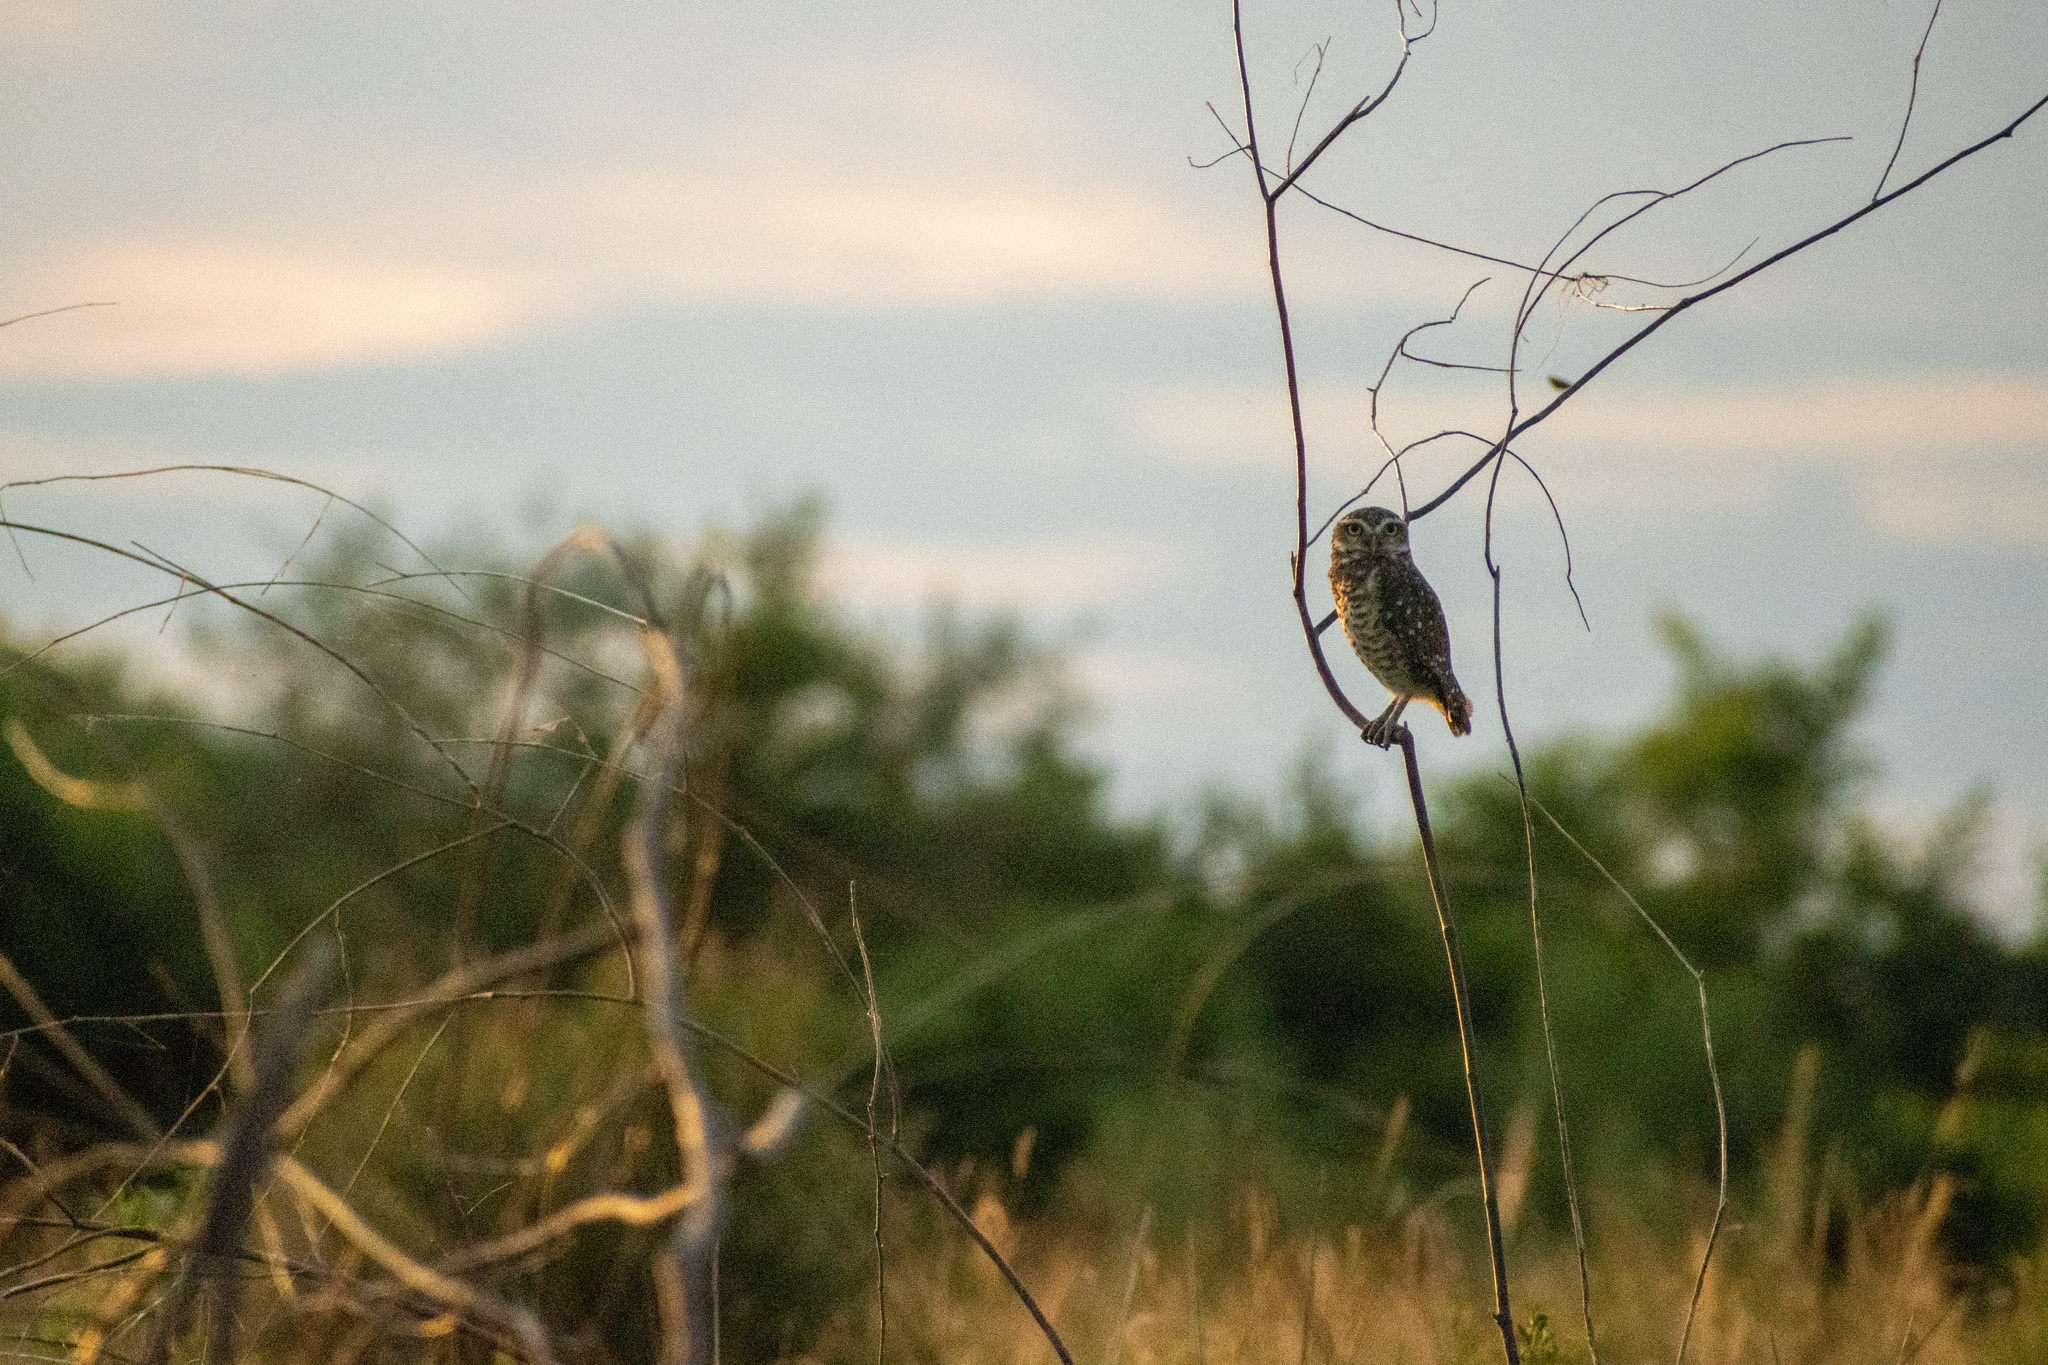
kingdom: Animalia
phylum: Chordata
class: Aves
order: Strigiformes
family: Strigidae
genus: Athene
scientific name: Athene cunicularia
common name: Burrowing owl
